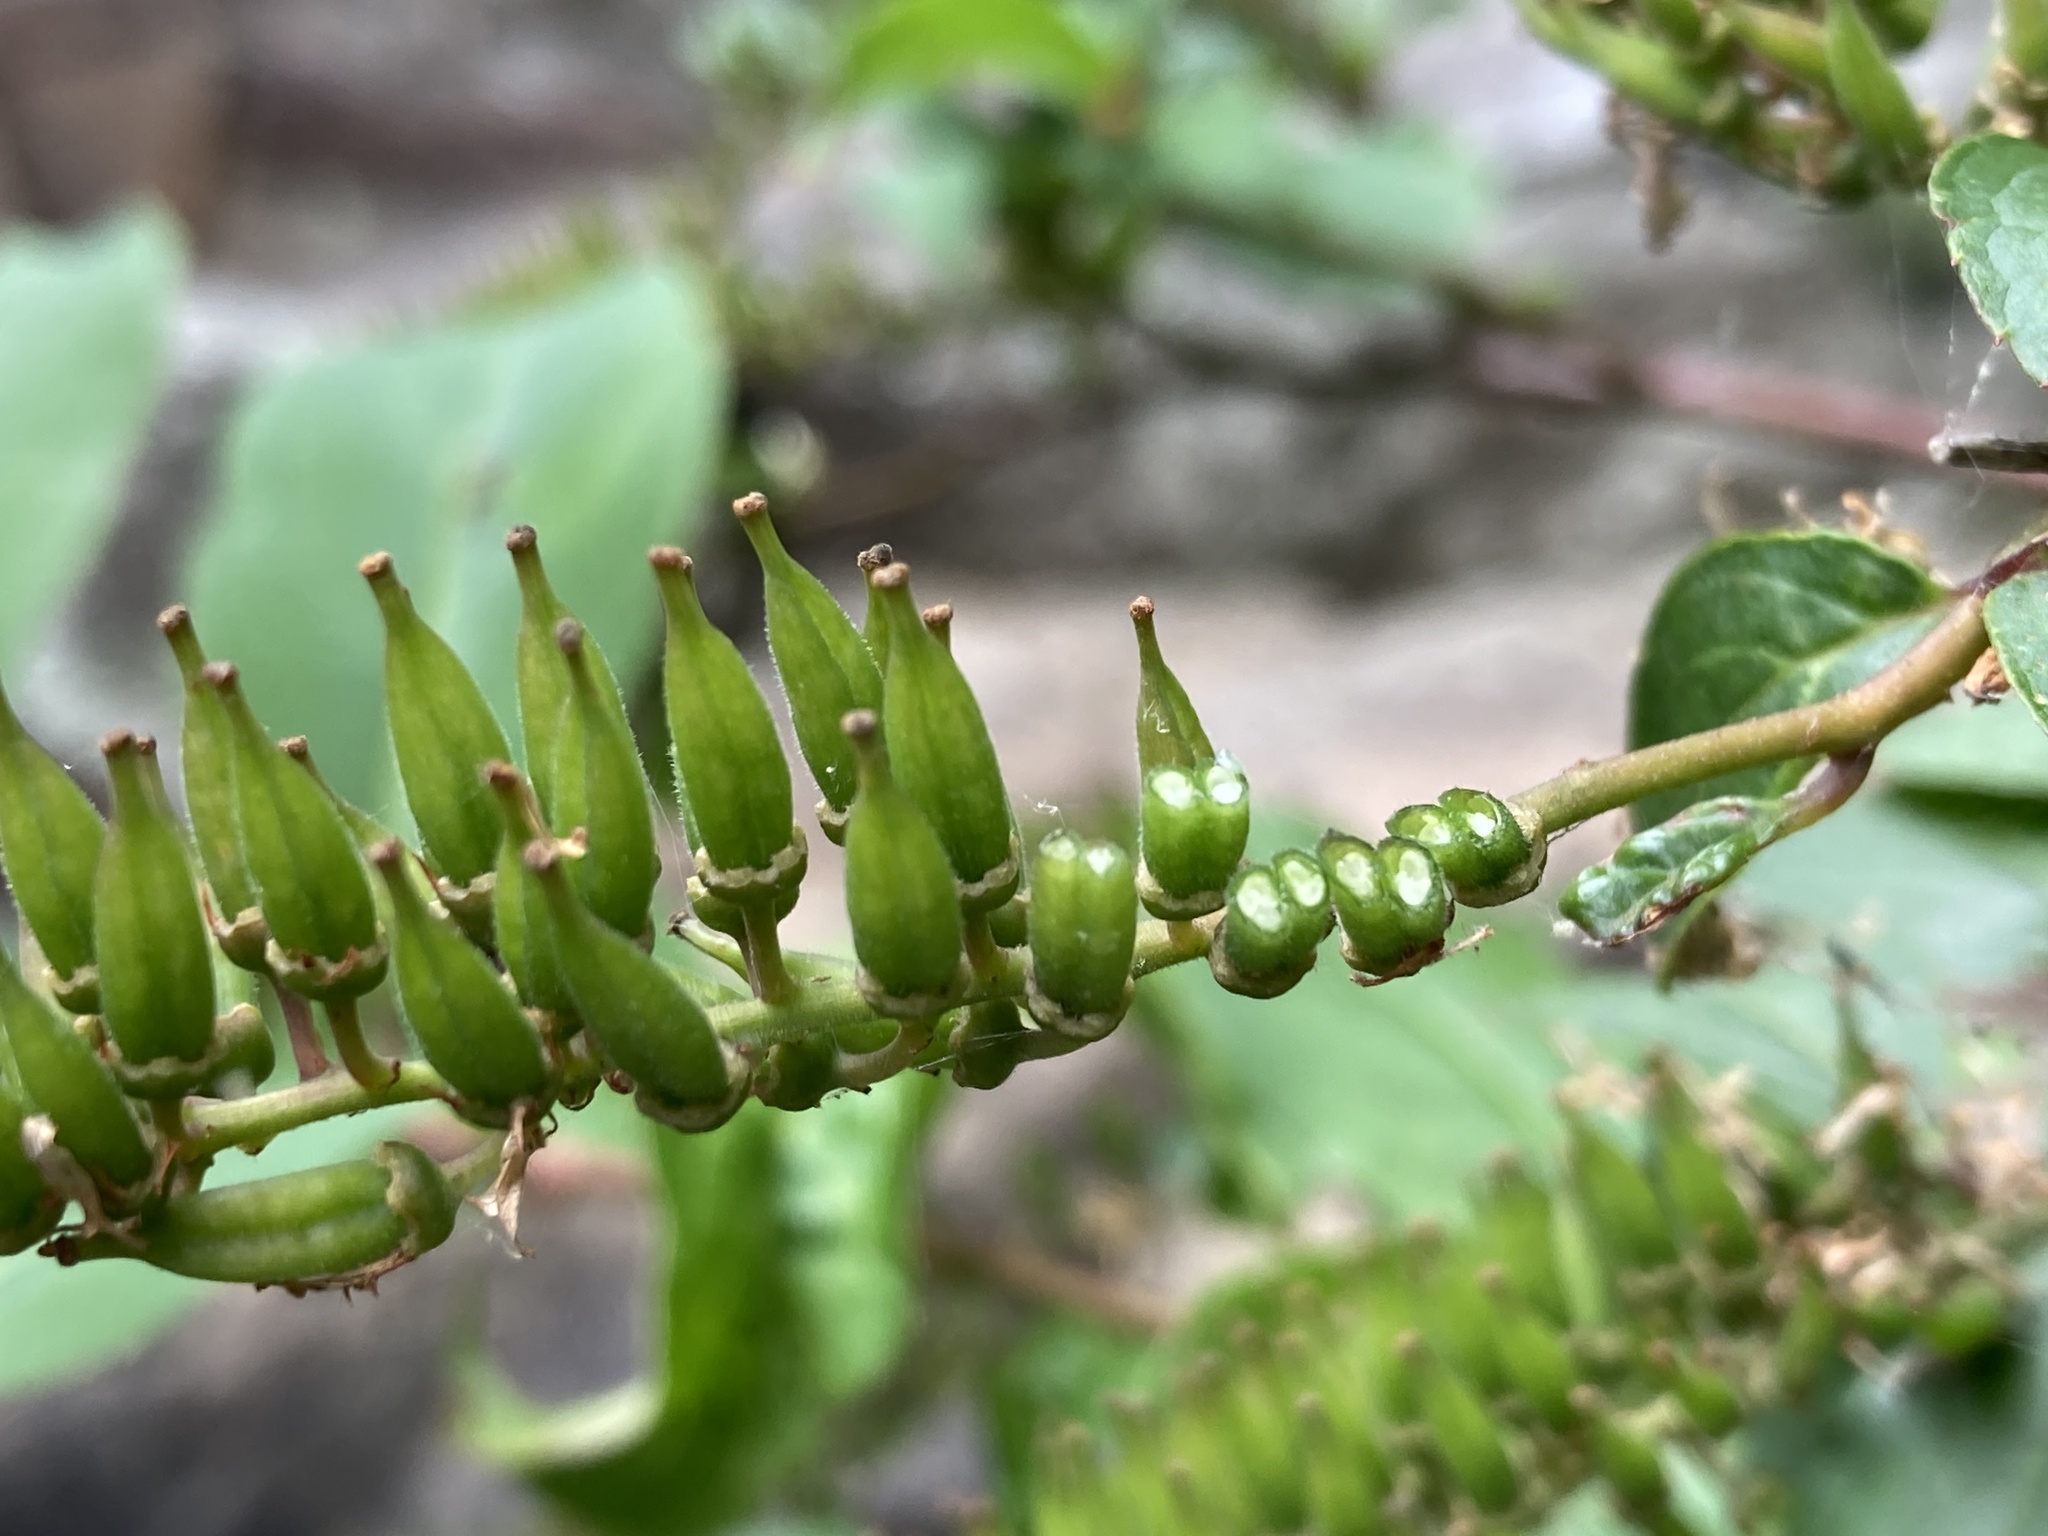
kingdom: Plantae
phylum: Tracheophyta
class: Magnoliopsida
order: Saxifragales
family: Iteaceae
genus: Itea
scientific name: Itea virginica
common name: Sweetspire
